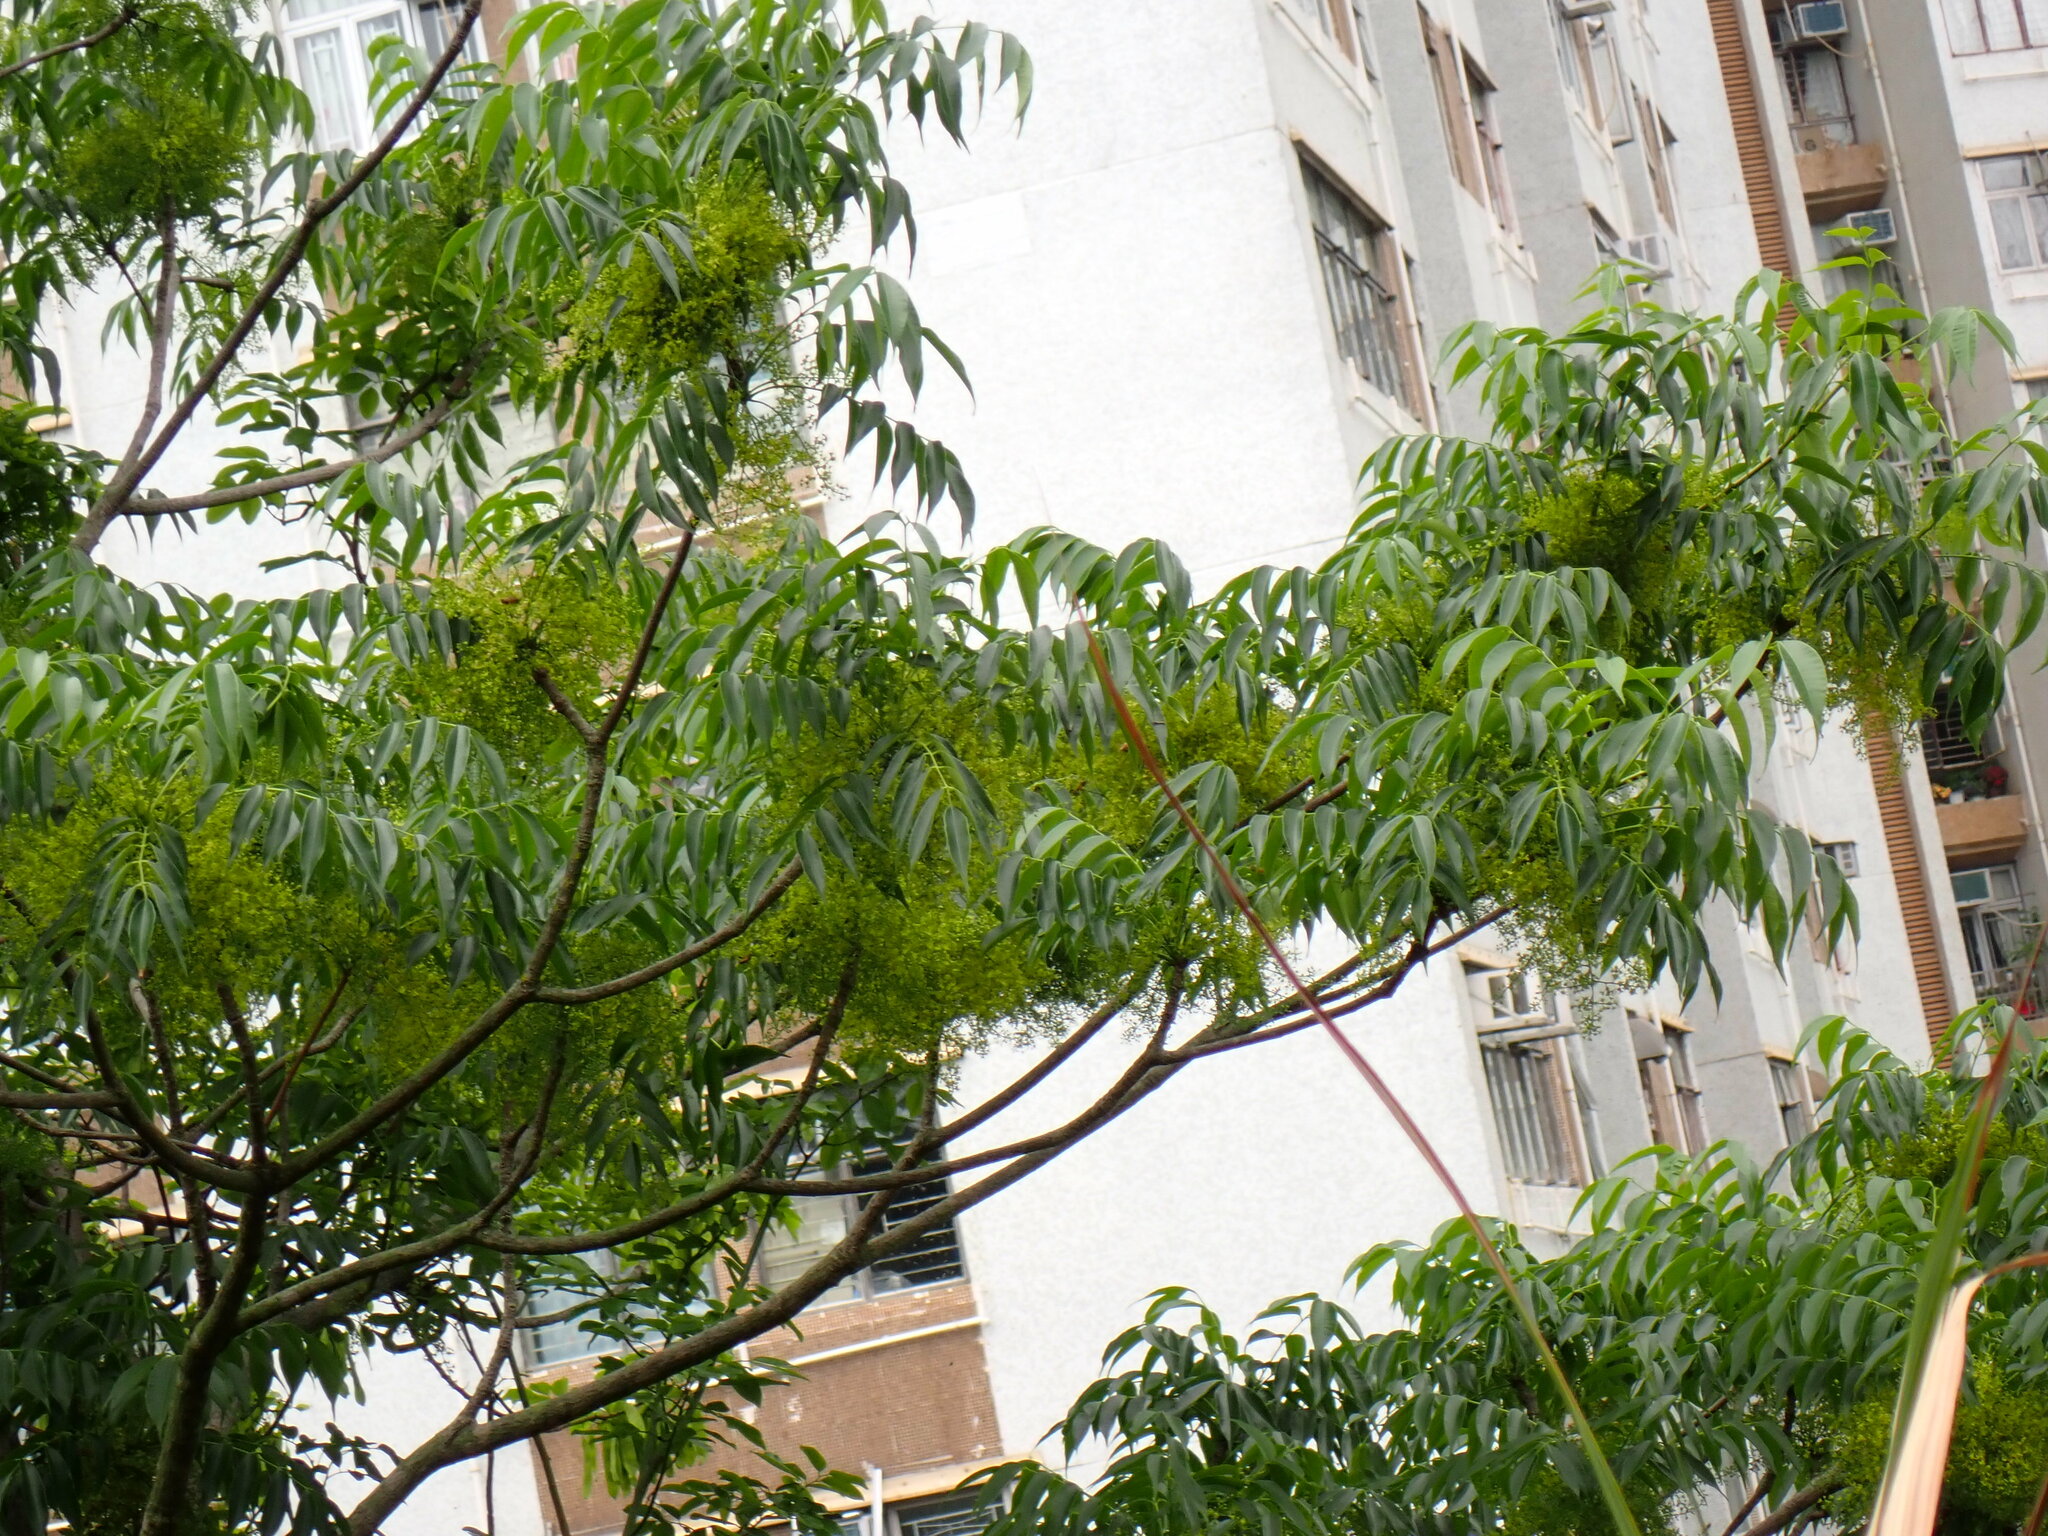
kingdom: Plantae
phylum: Tracheophyta
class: Magnoliopsida
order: Sapindales
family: Anacardiaceae
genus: Toxicodendron
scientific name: Toxicodendron succedaneum
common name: Wax tree
